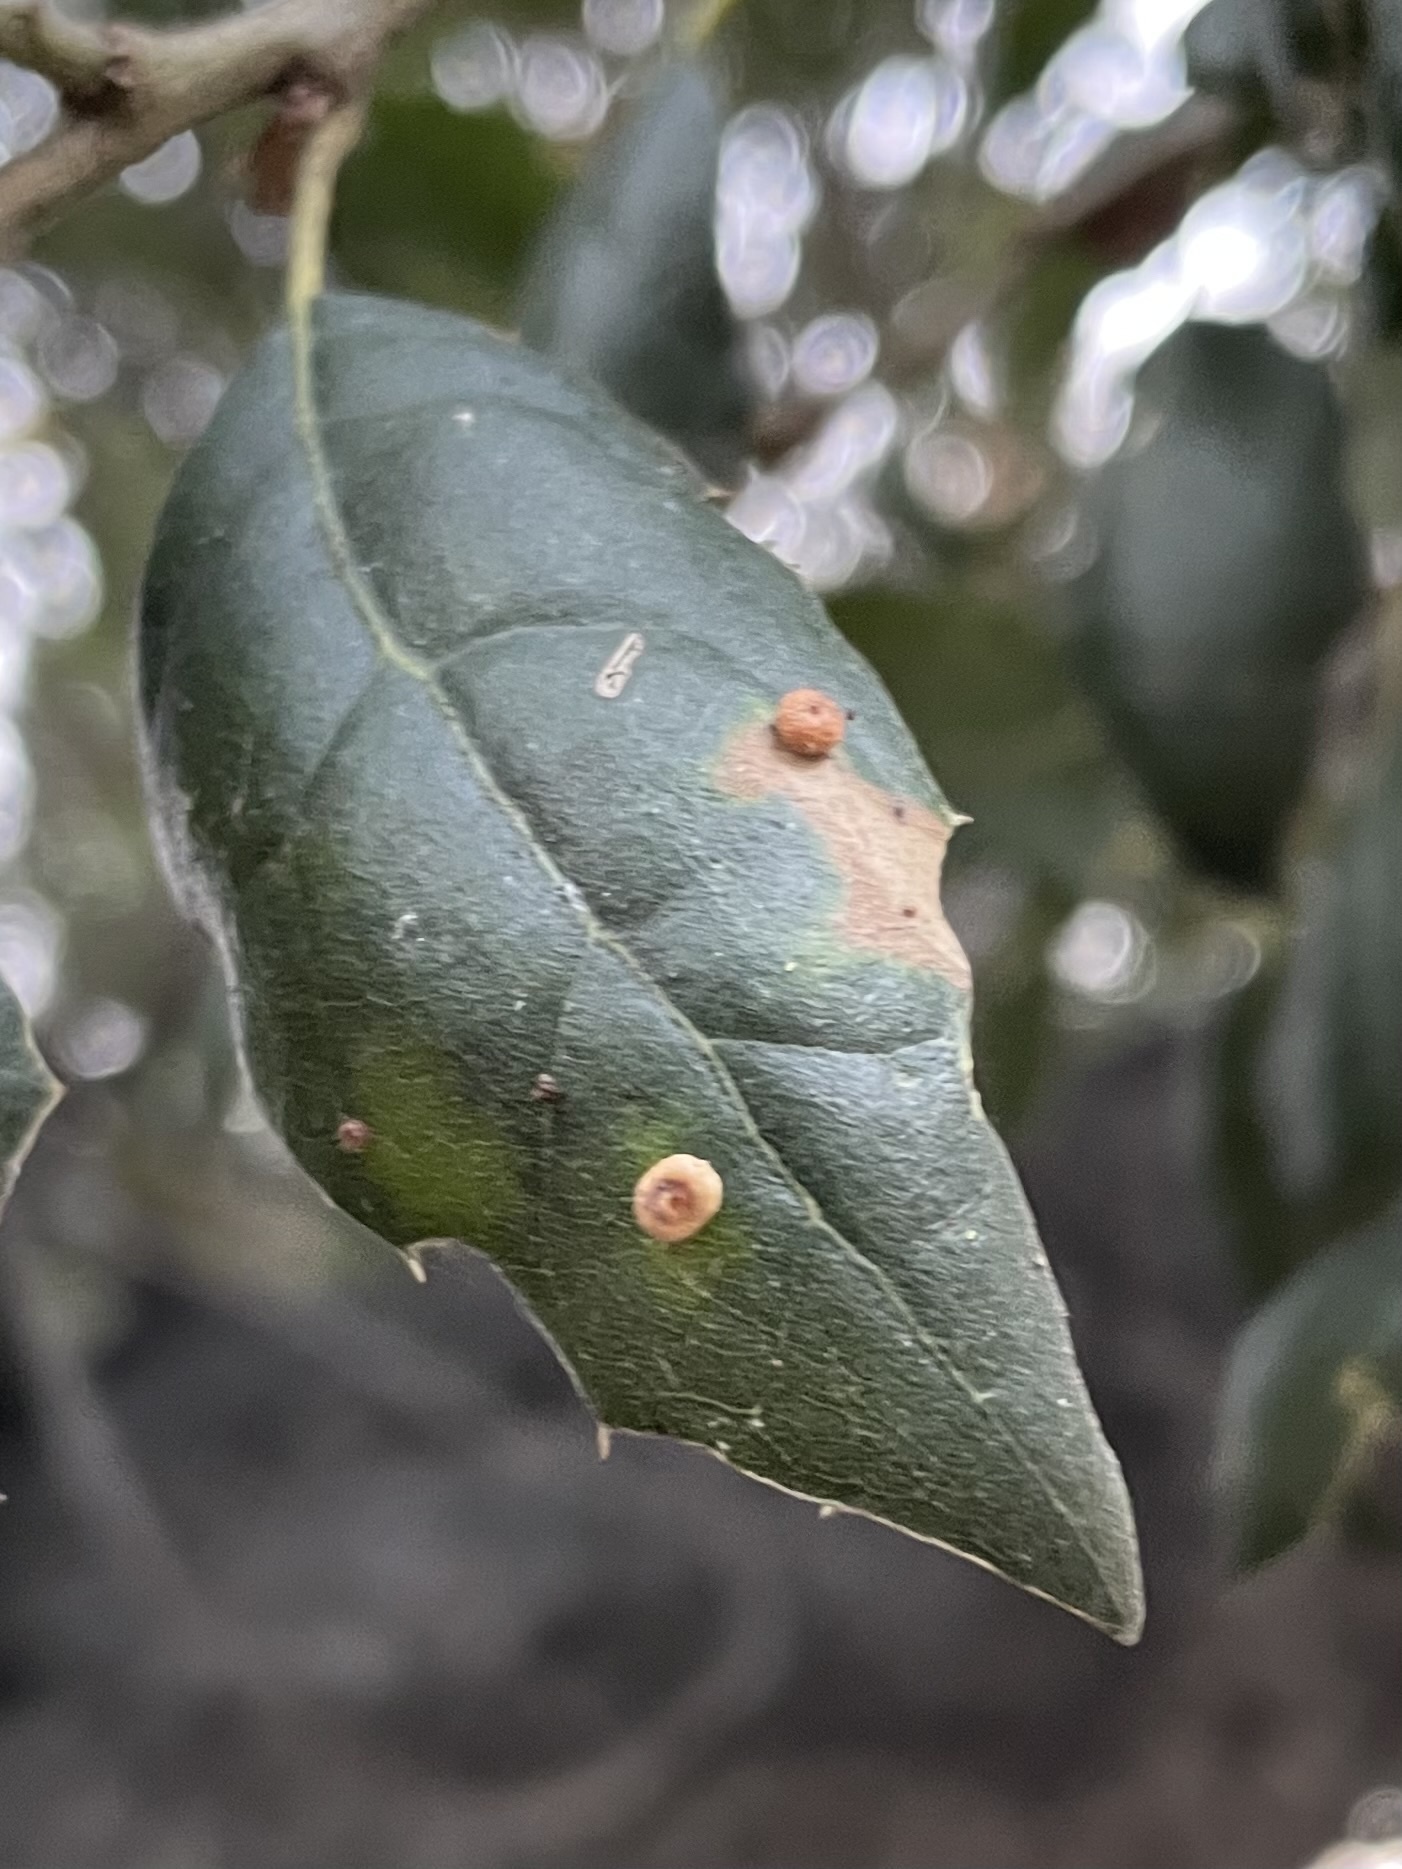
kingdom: Animalia
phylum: Arthropoda
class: Insecta
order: Hymenoptera
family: Cynipidae
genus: Dryocosmus
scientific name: Dryocosmus
